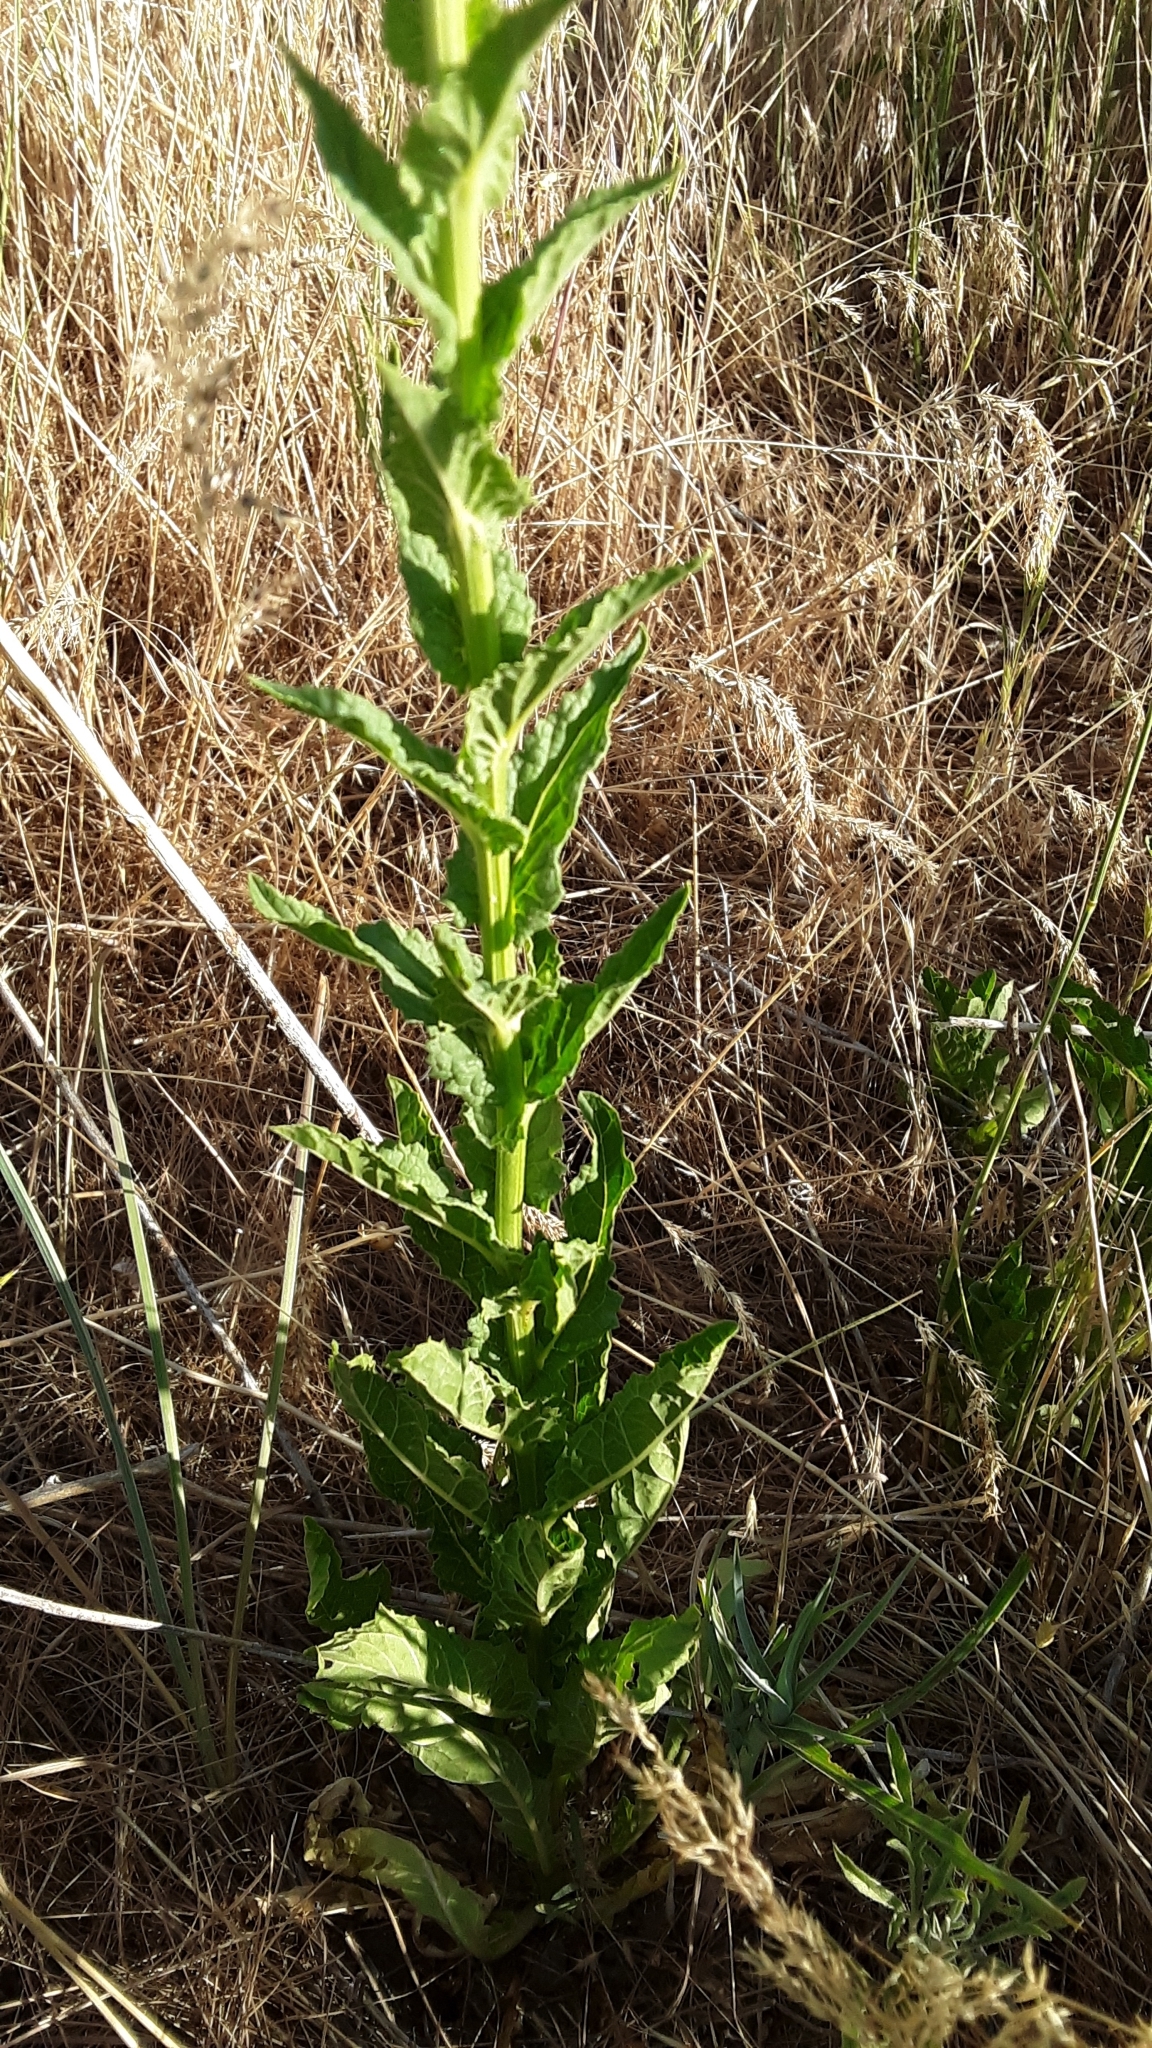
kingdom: Plantae
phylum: Tracheophyta
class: Magnoliopsida
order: Lamiales
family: Scrophulariaceae
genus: Verbascum
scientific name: Verbascum blattaria
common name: Moth mullein
